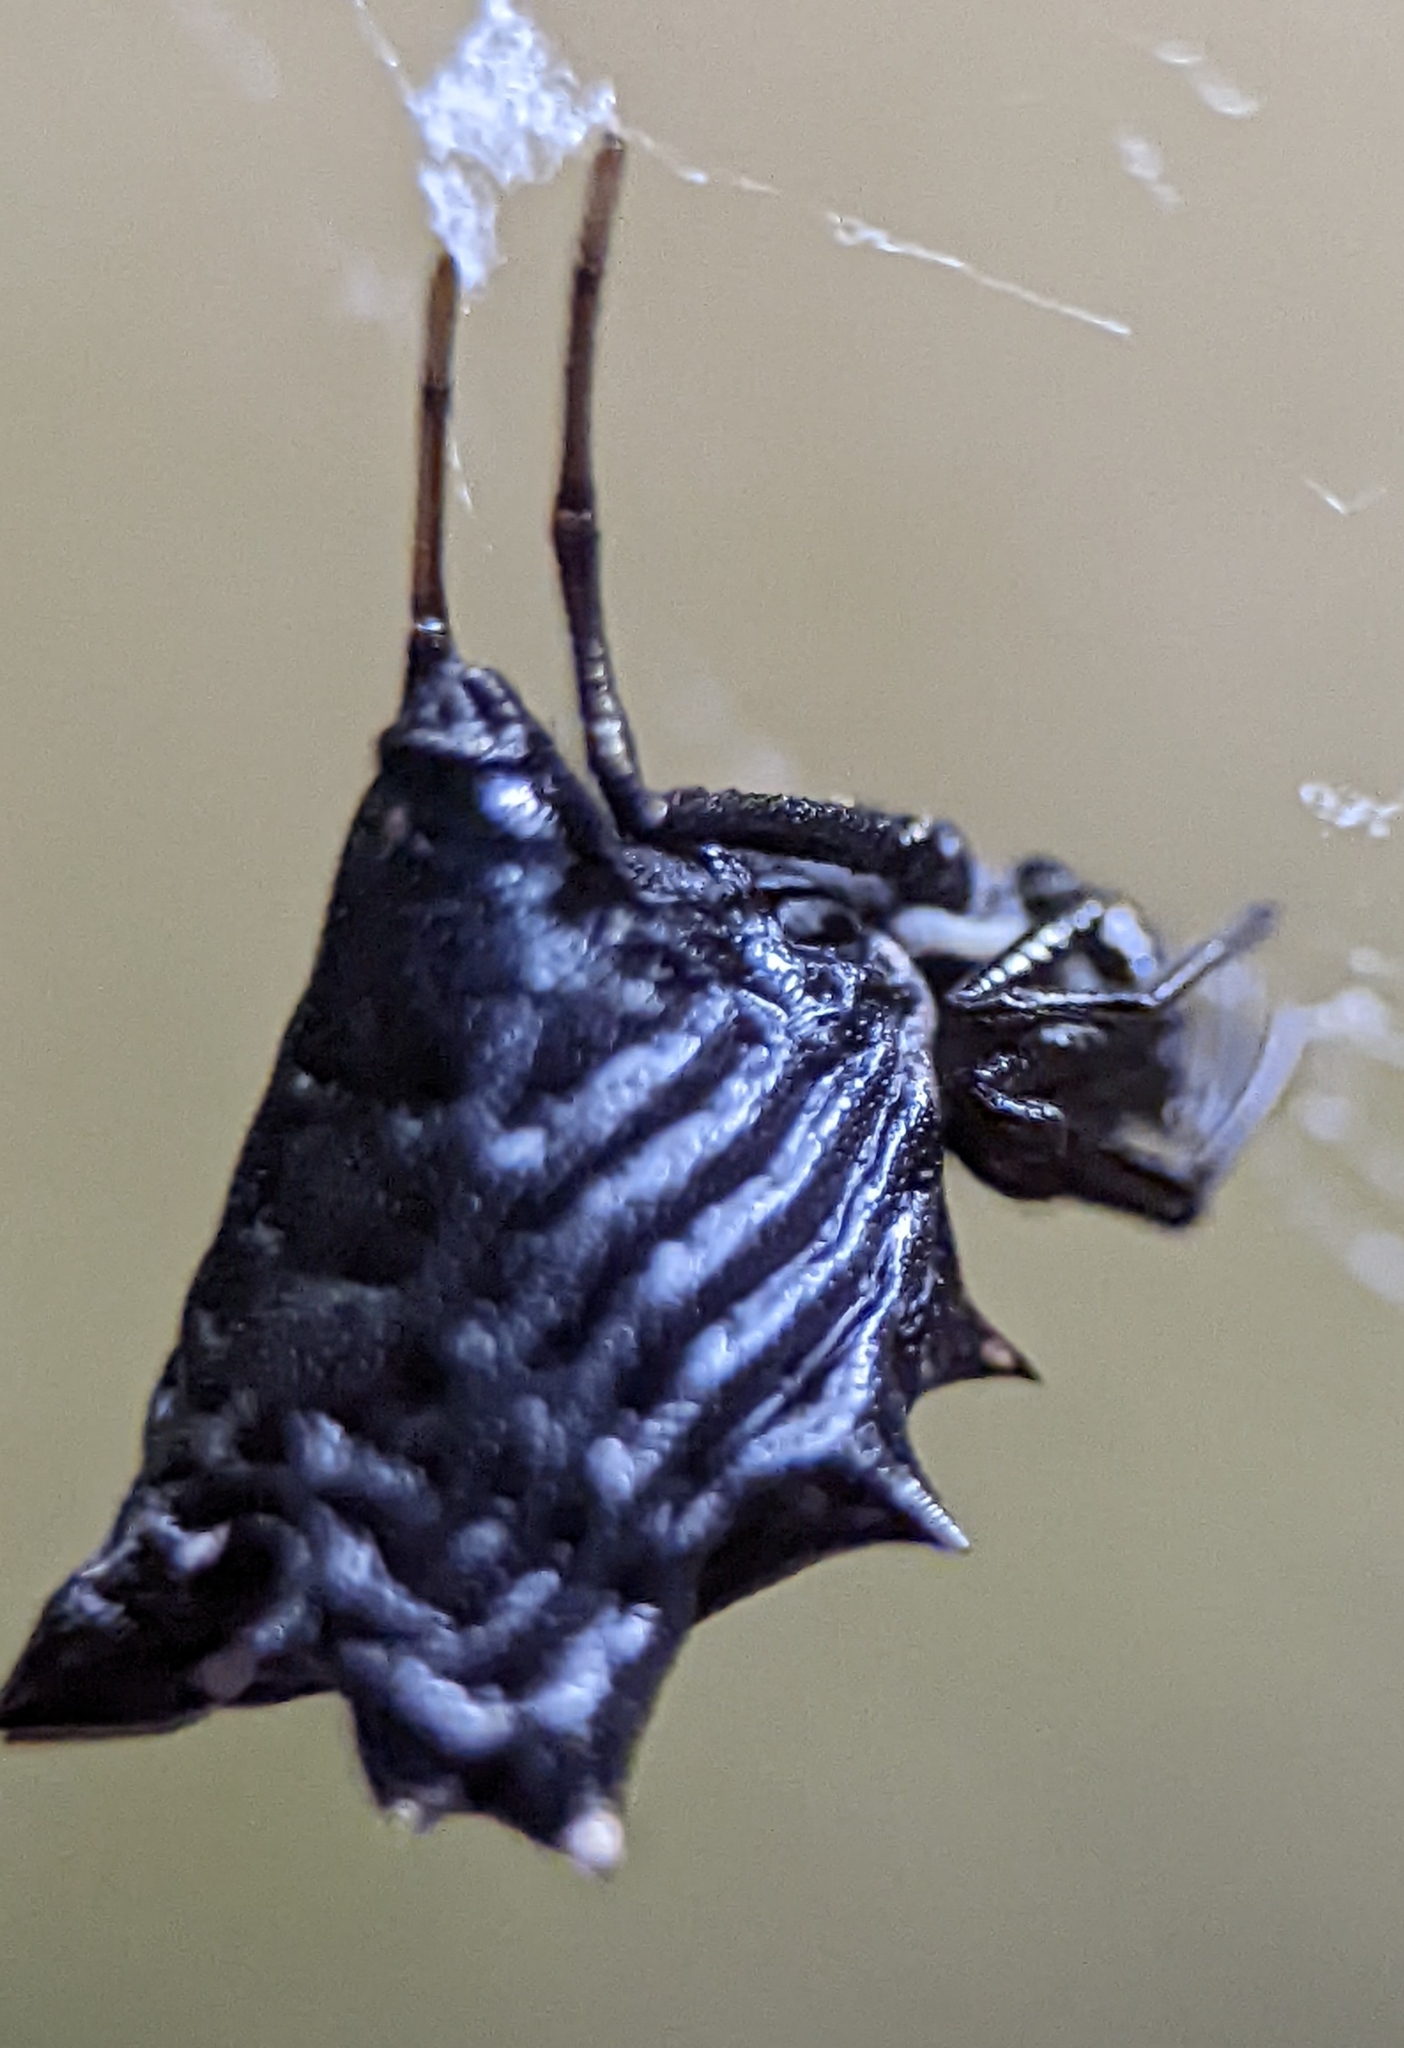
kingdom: Animalia
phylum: Arthropoda
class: Arachnida
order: Araneae
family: Araneidae
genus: Micrathena
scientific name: Micrathena gracilis
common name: Orb weavers
